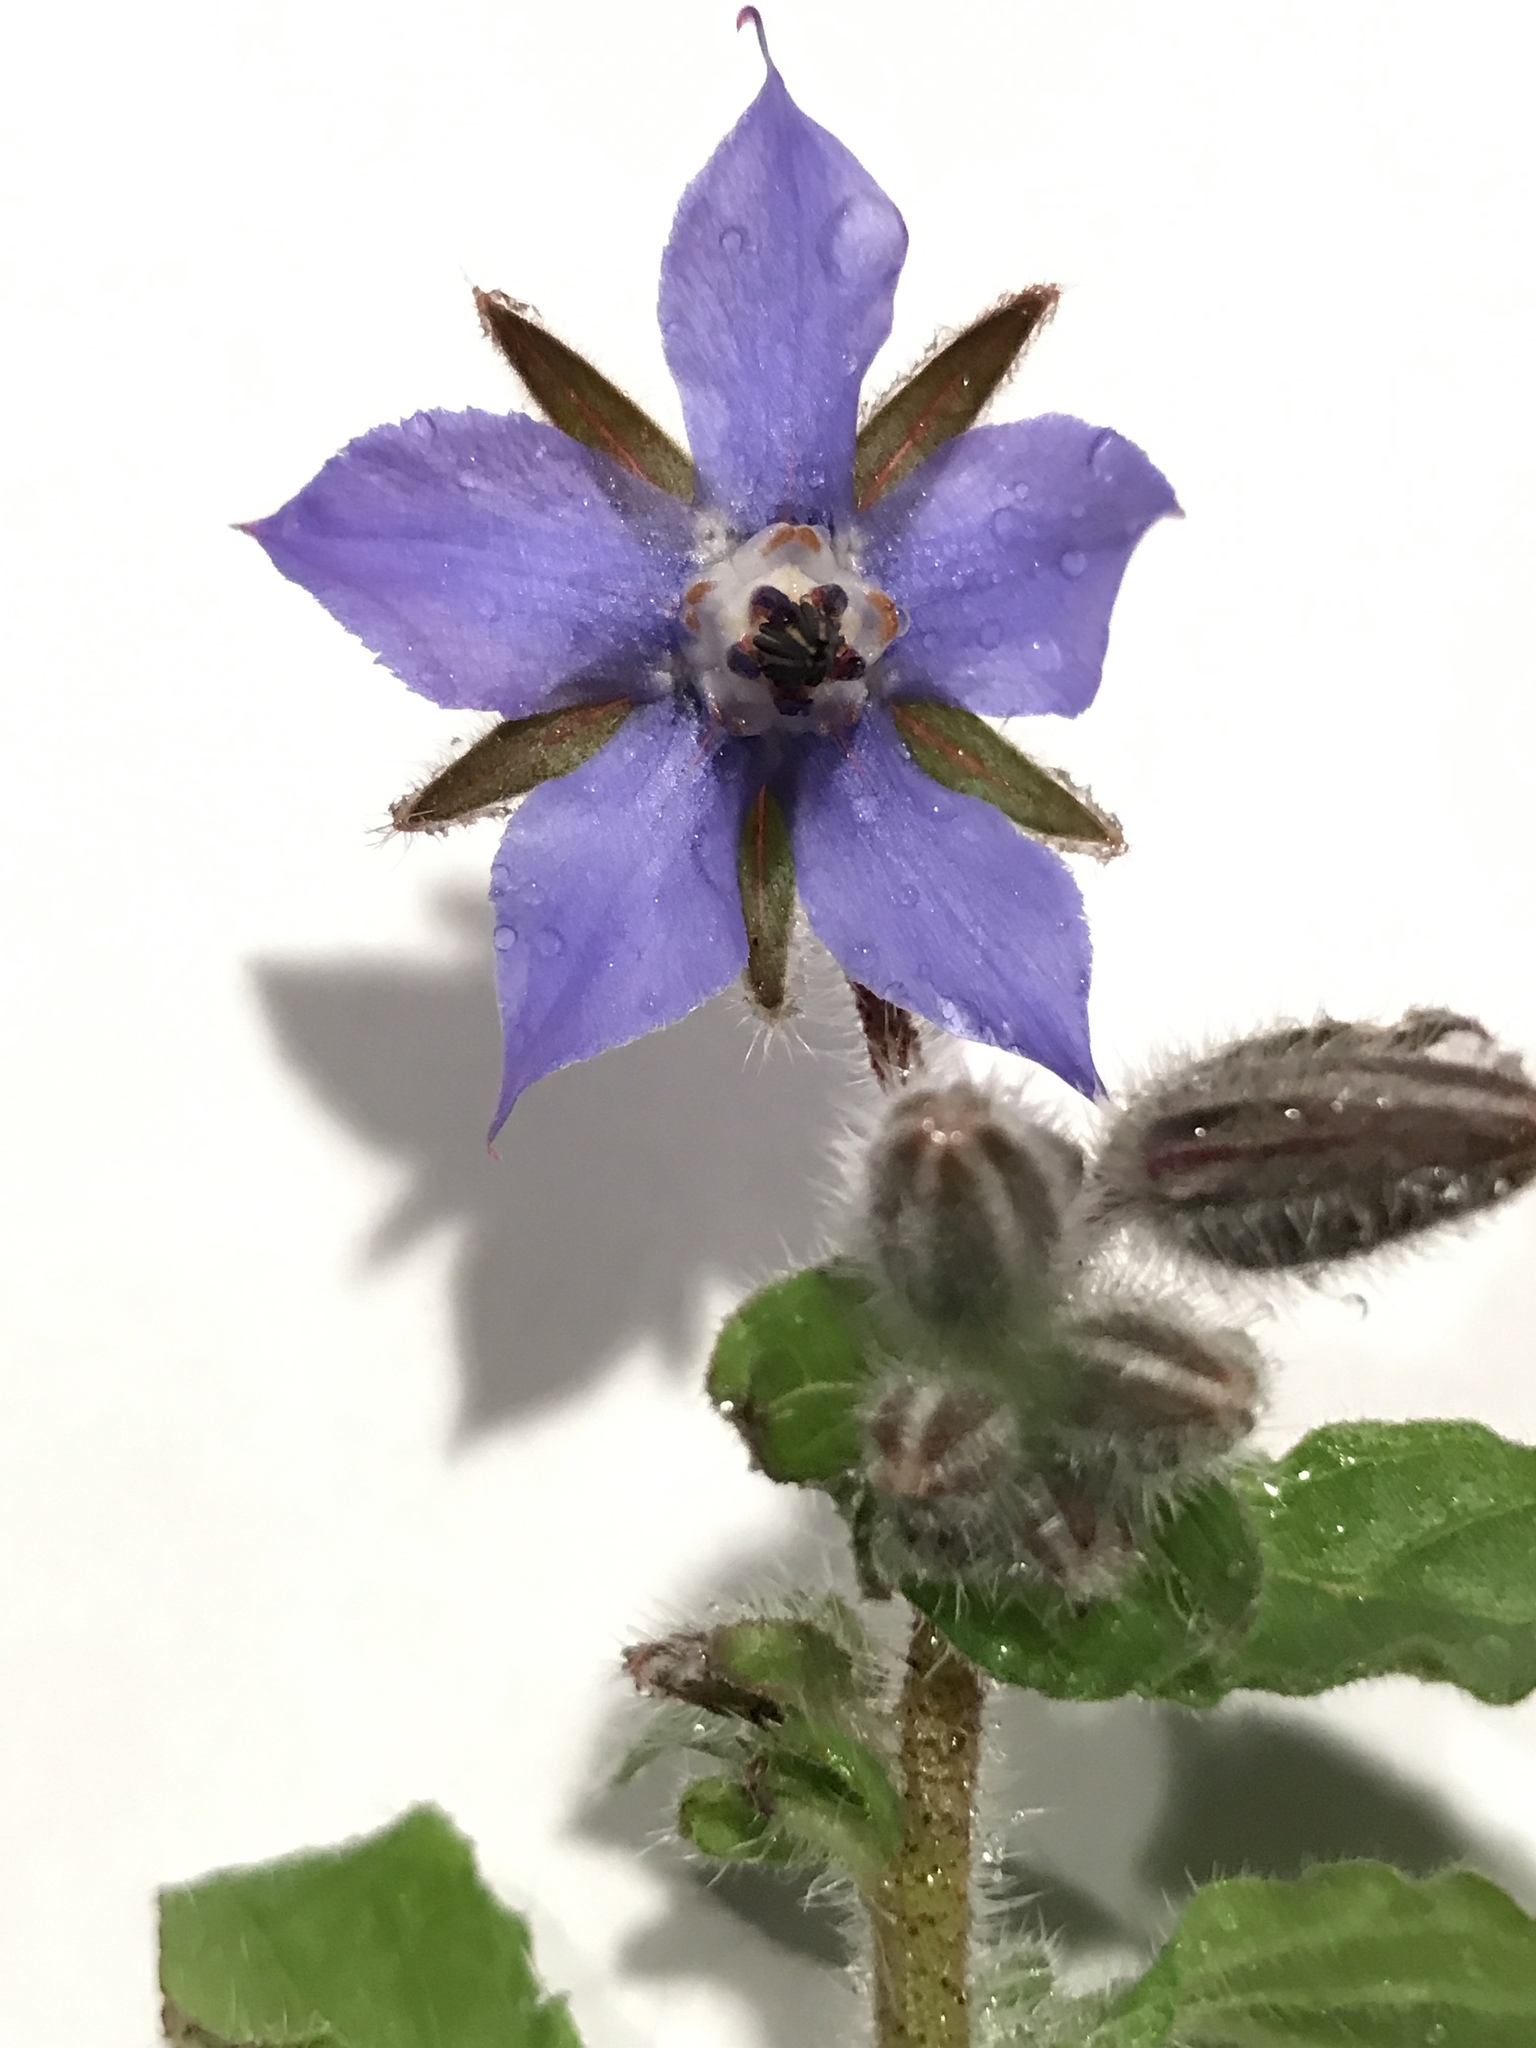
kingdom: Plantae
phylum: Tracheophyta
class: Magnoliopsida
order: Boraginales
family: Boraginaceae
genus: Borago
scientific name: Borago officinalis
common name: Borage
